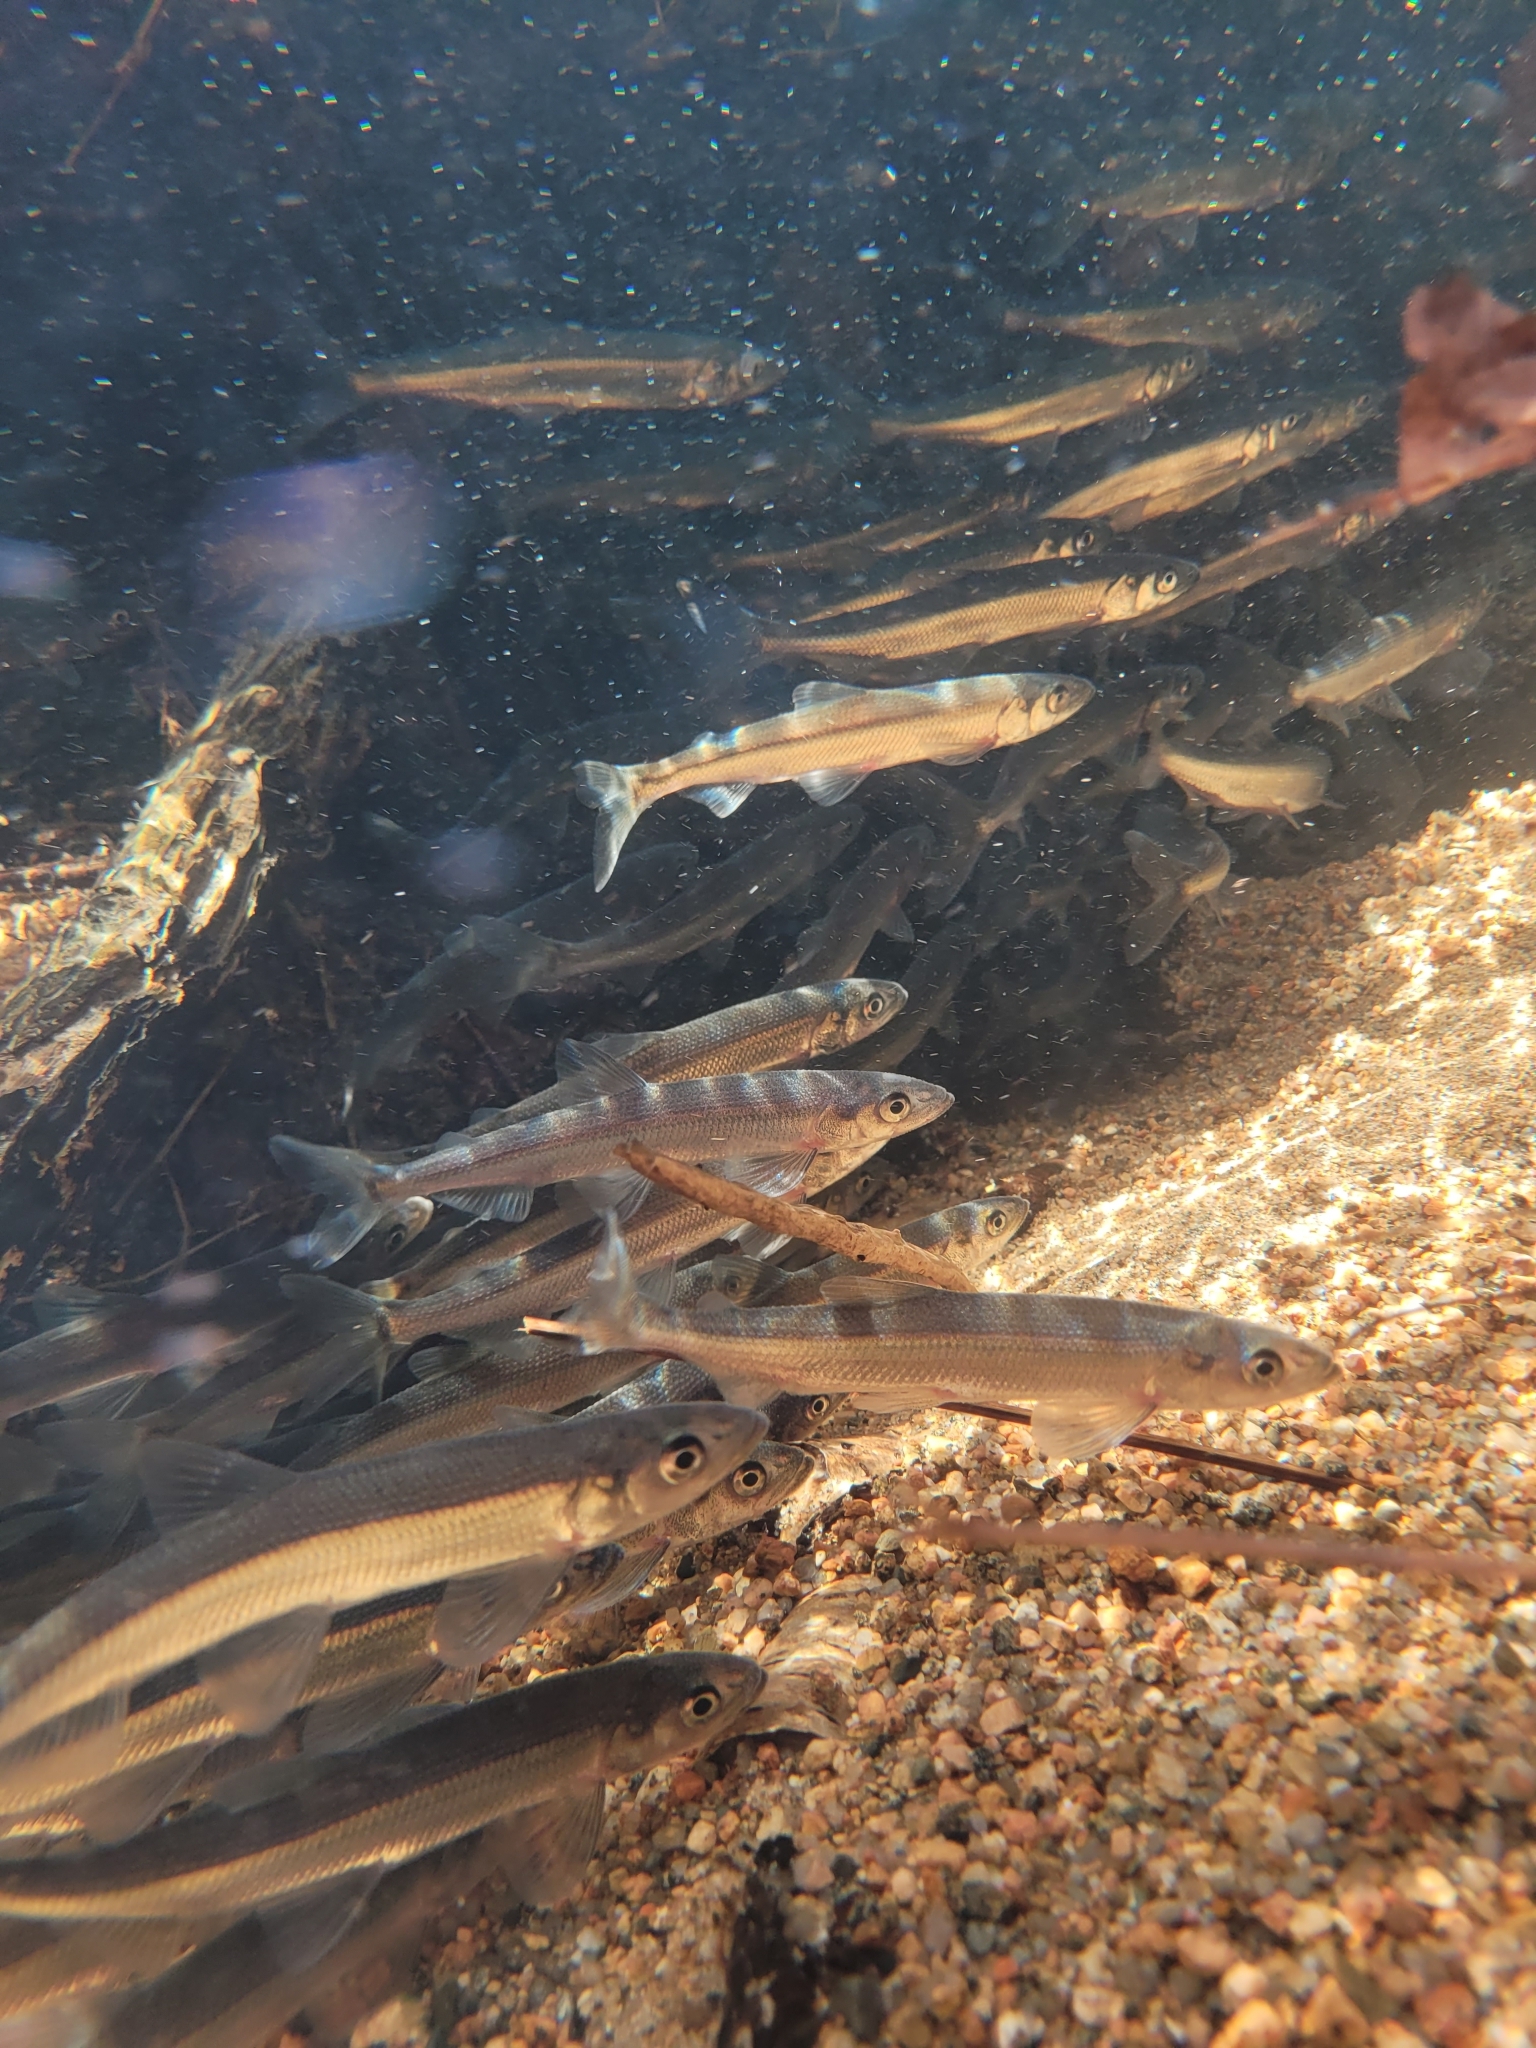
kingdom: Animalia
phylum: Chordata
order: Osmeriformes
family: Osmeridae
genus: Osmerus
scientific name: Osmerus mordax
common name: Rainbow smelt
